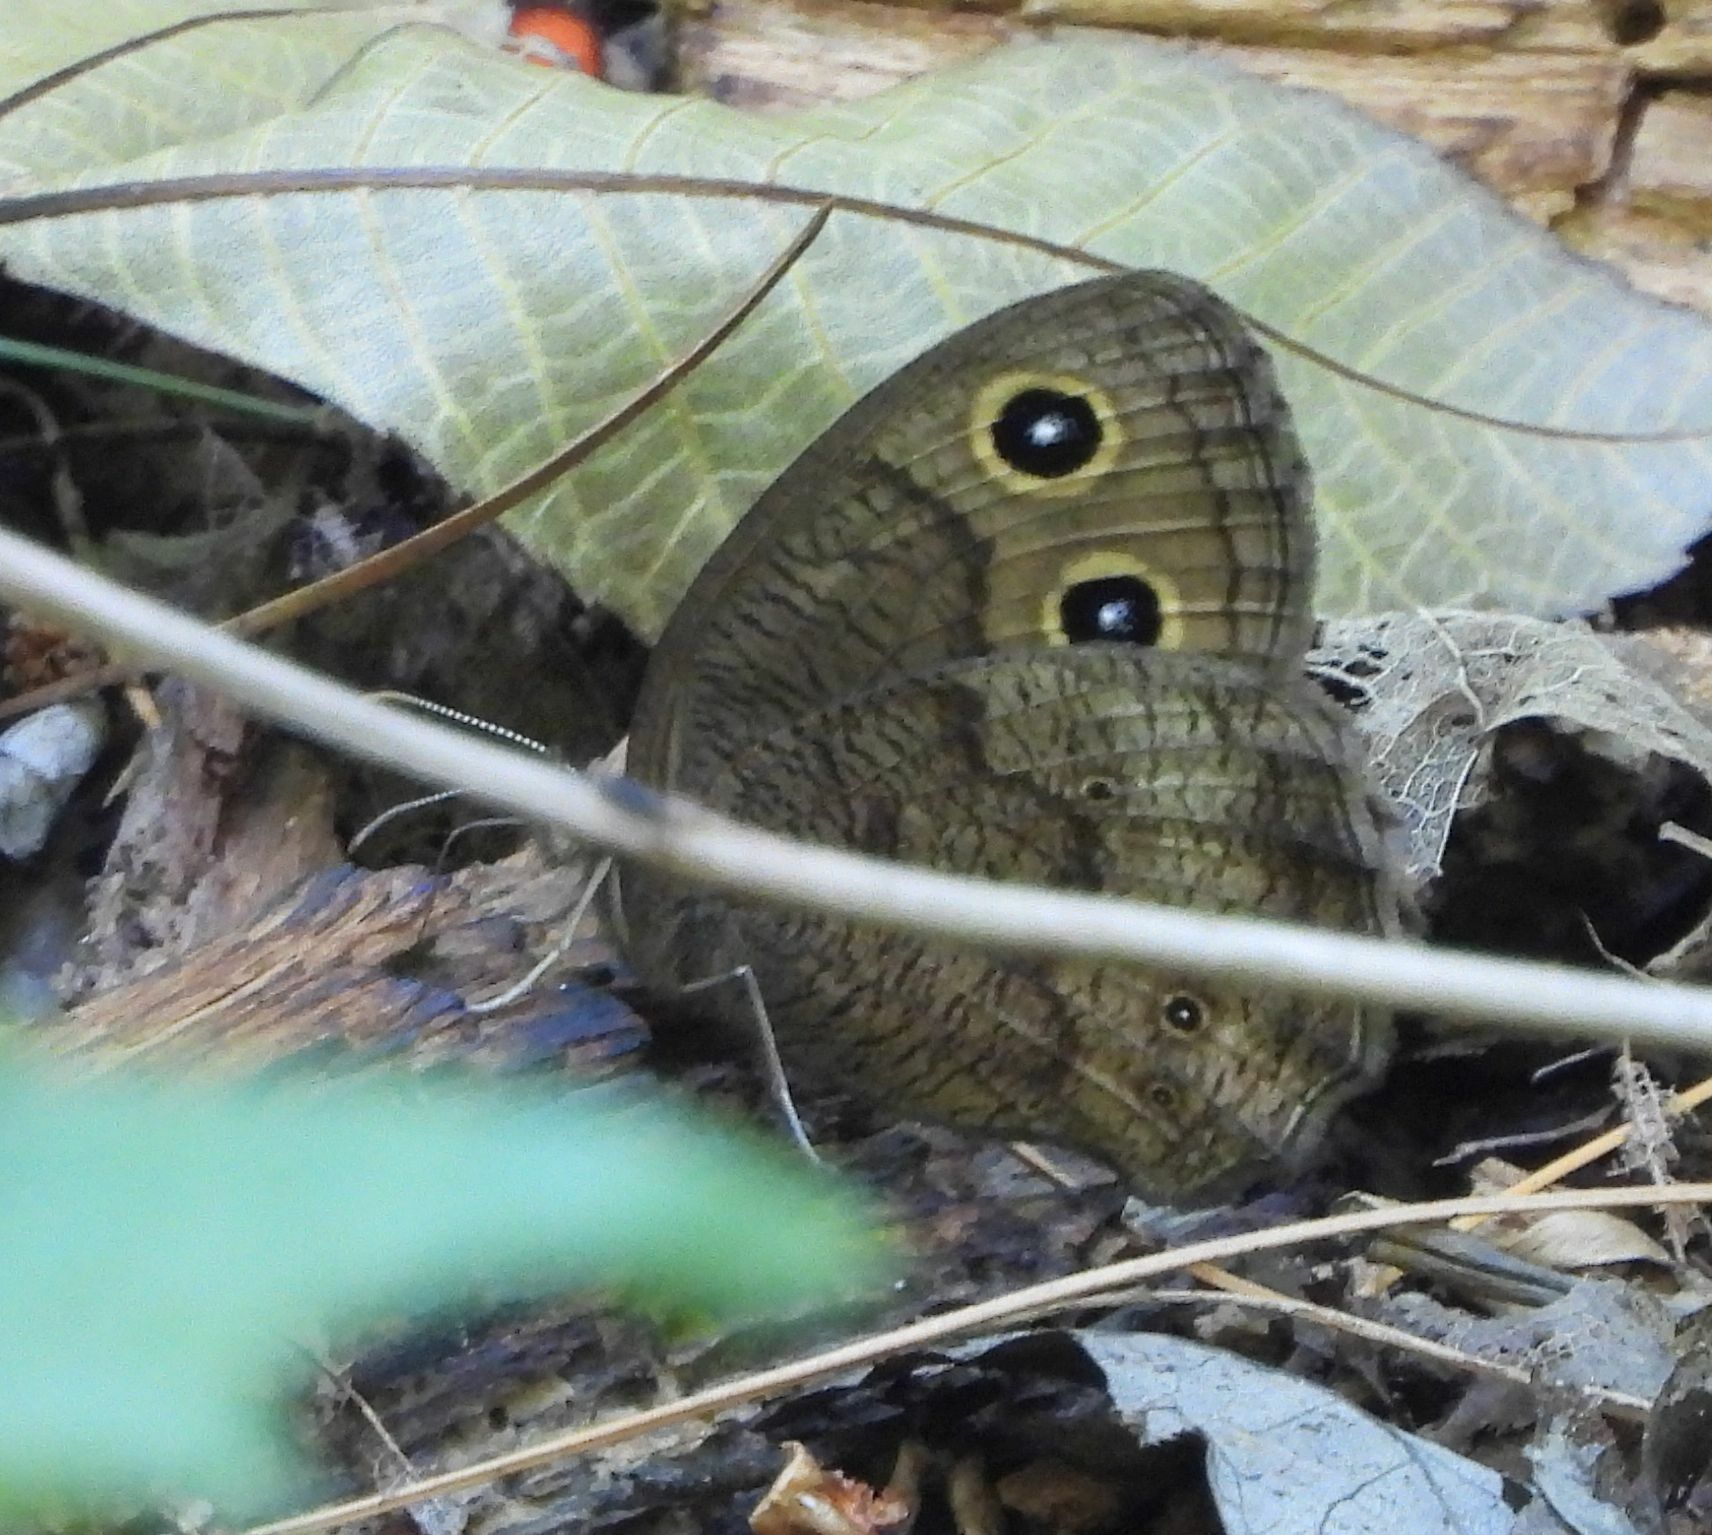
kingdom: Animalia
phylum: Arthropoda
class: Insecta
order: Lepidoptera
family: Nymphalidae
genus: Cercyonis
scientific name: Cercyonis pegala
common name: Common wood-nymph
